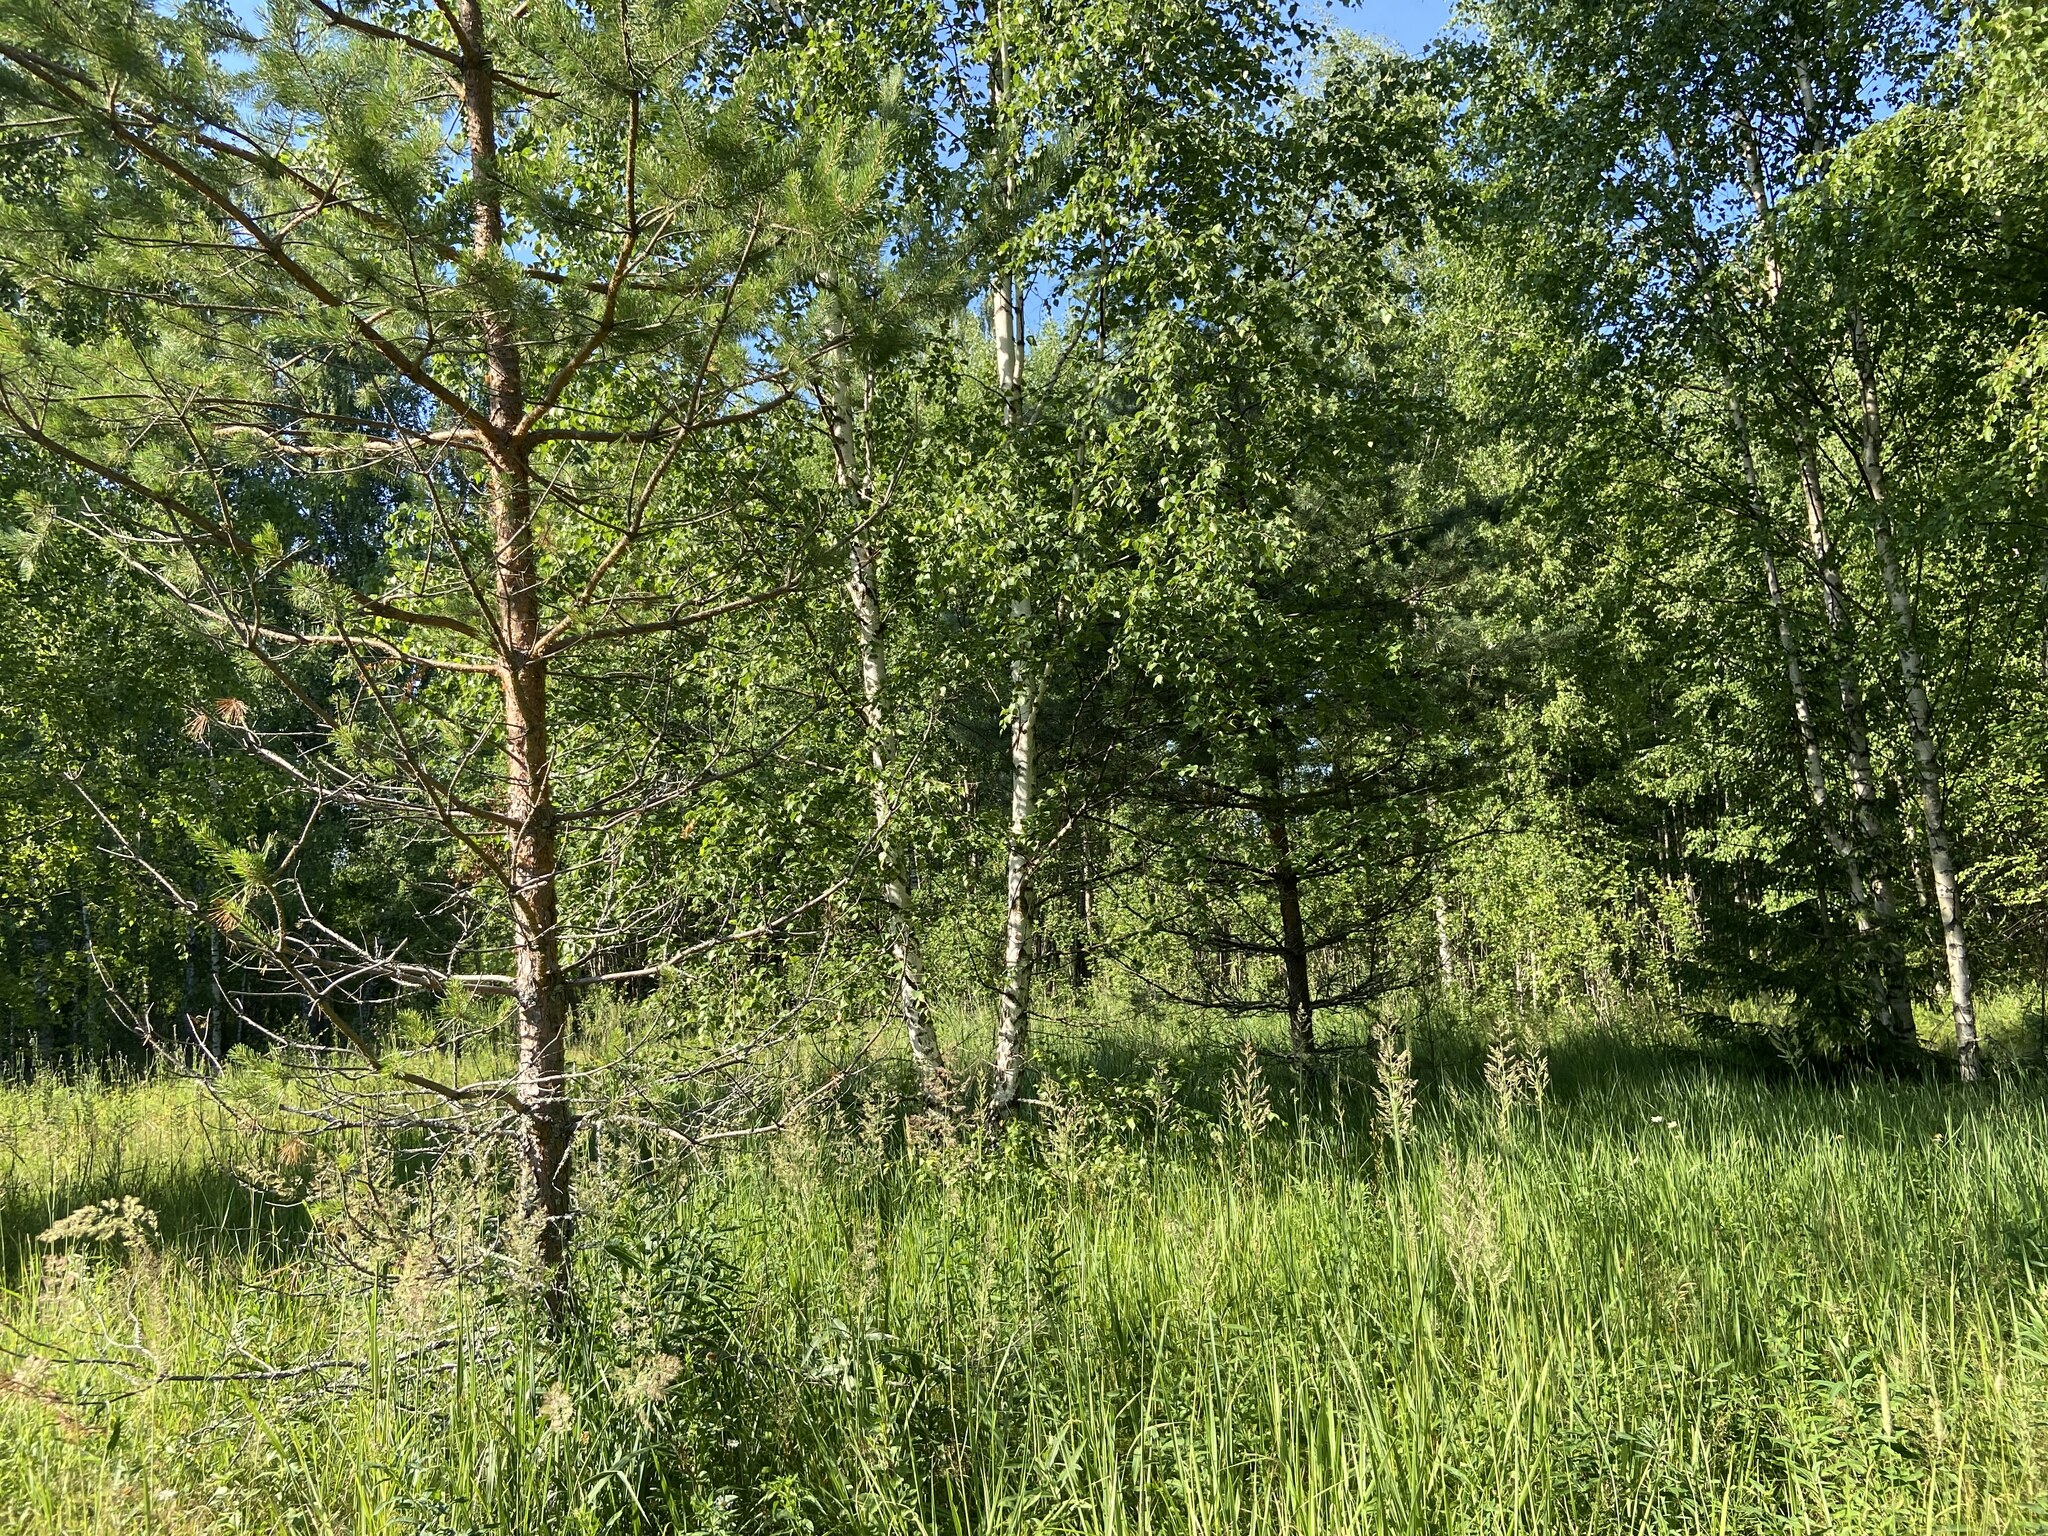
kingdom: Plantae
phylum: Tracheophyta
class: Pinopsida
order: Pinales
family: Pinaceae
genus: Pinus
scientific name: Pinus sylvestris
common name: Scots pine
